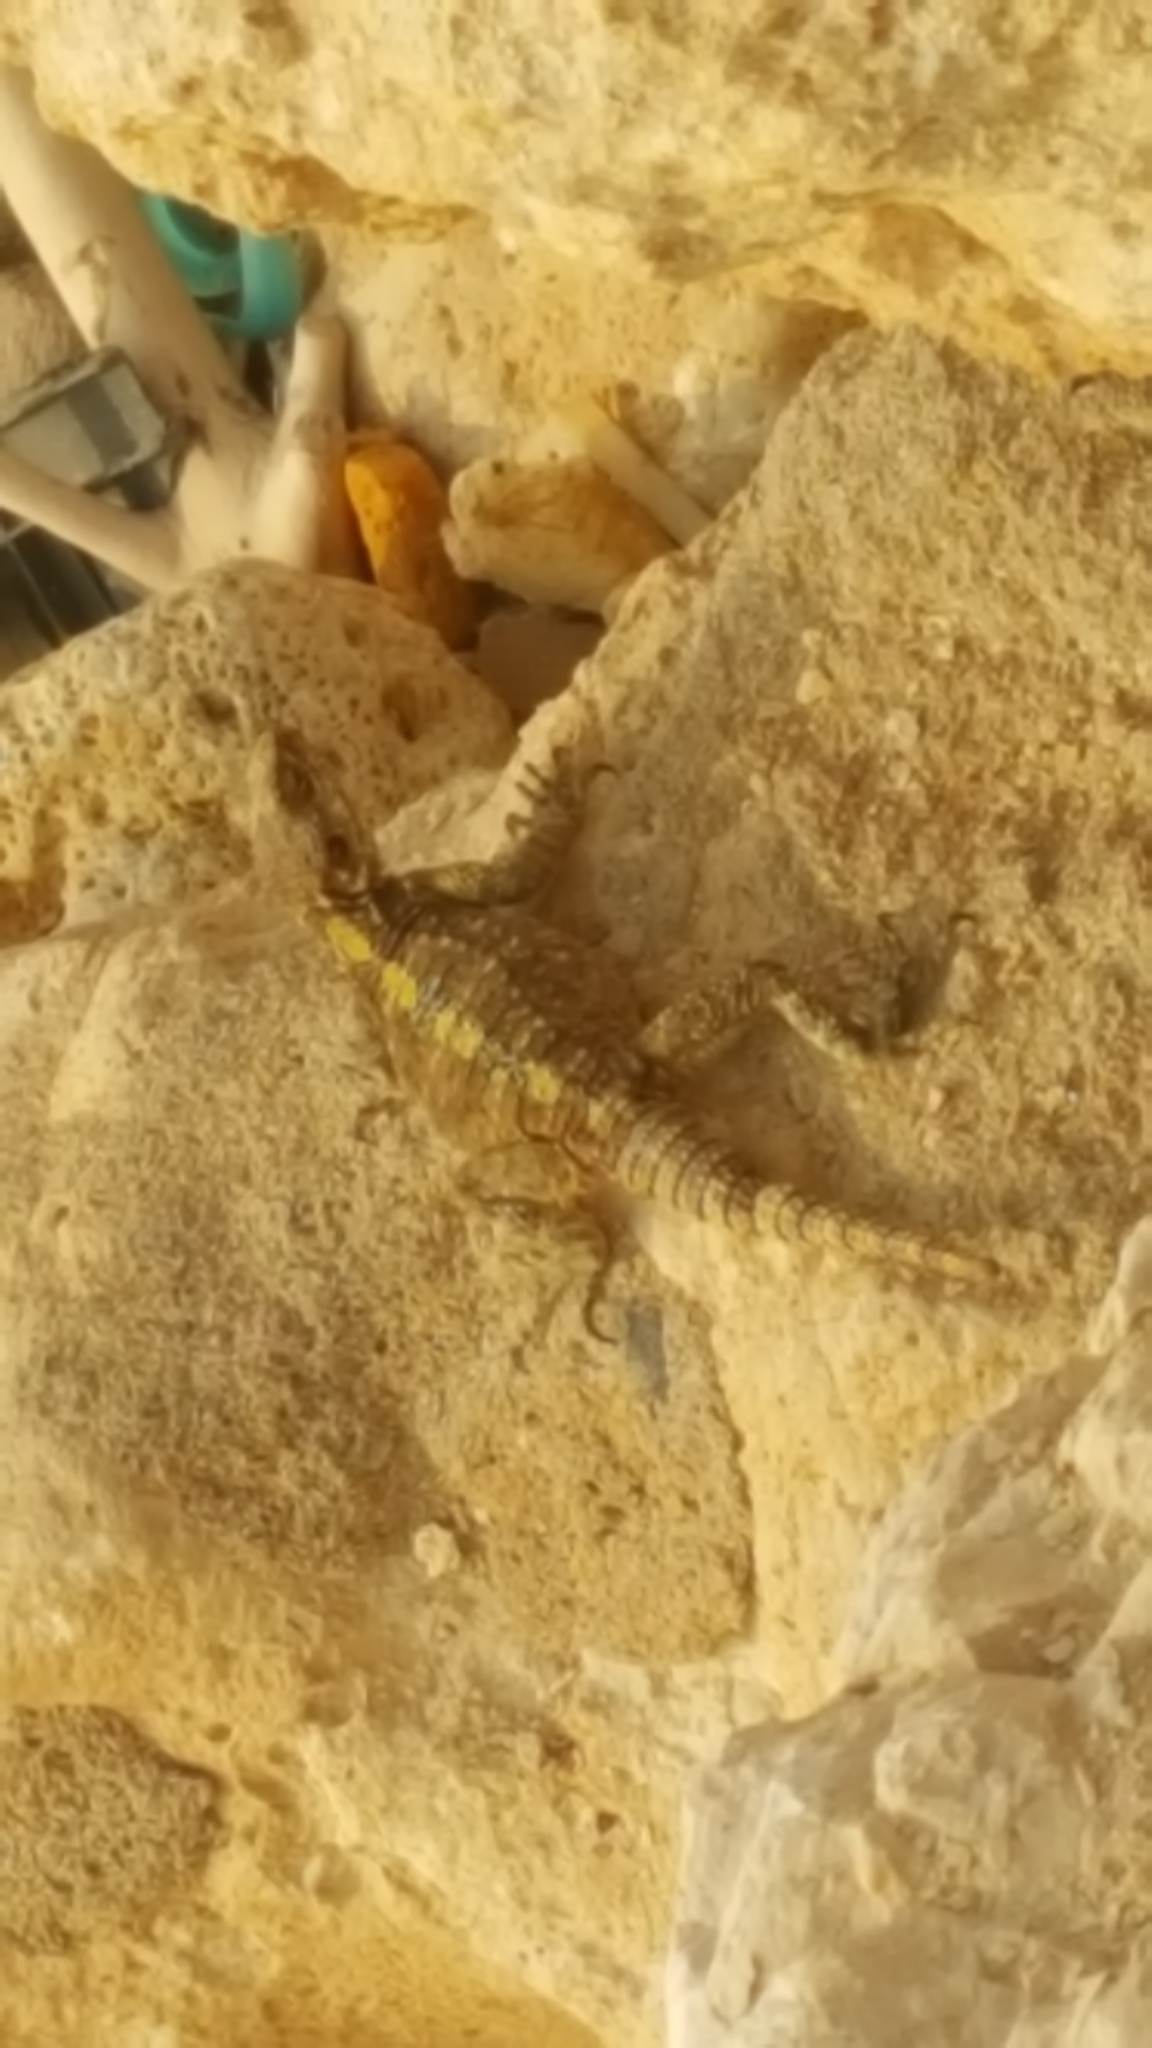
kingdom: Animalia
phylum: Chordata
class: Squamata
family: Agamidae
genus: Laudakia
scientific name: Laudakia vulgaris
